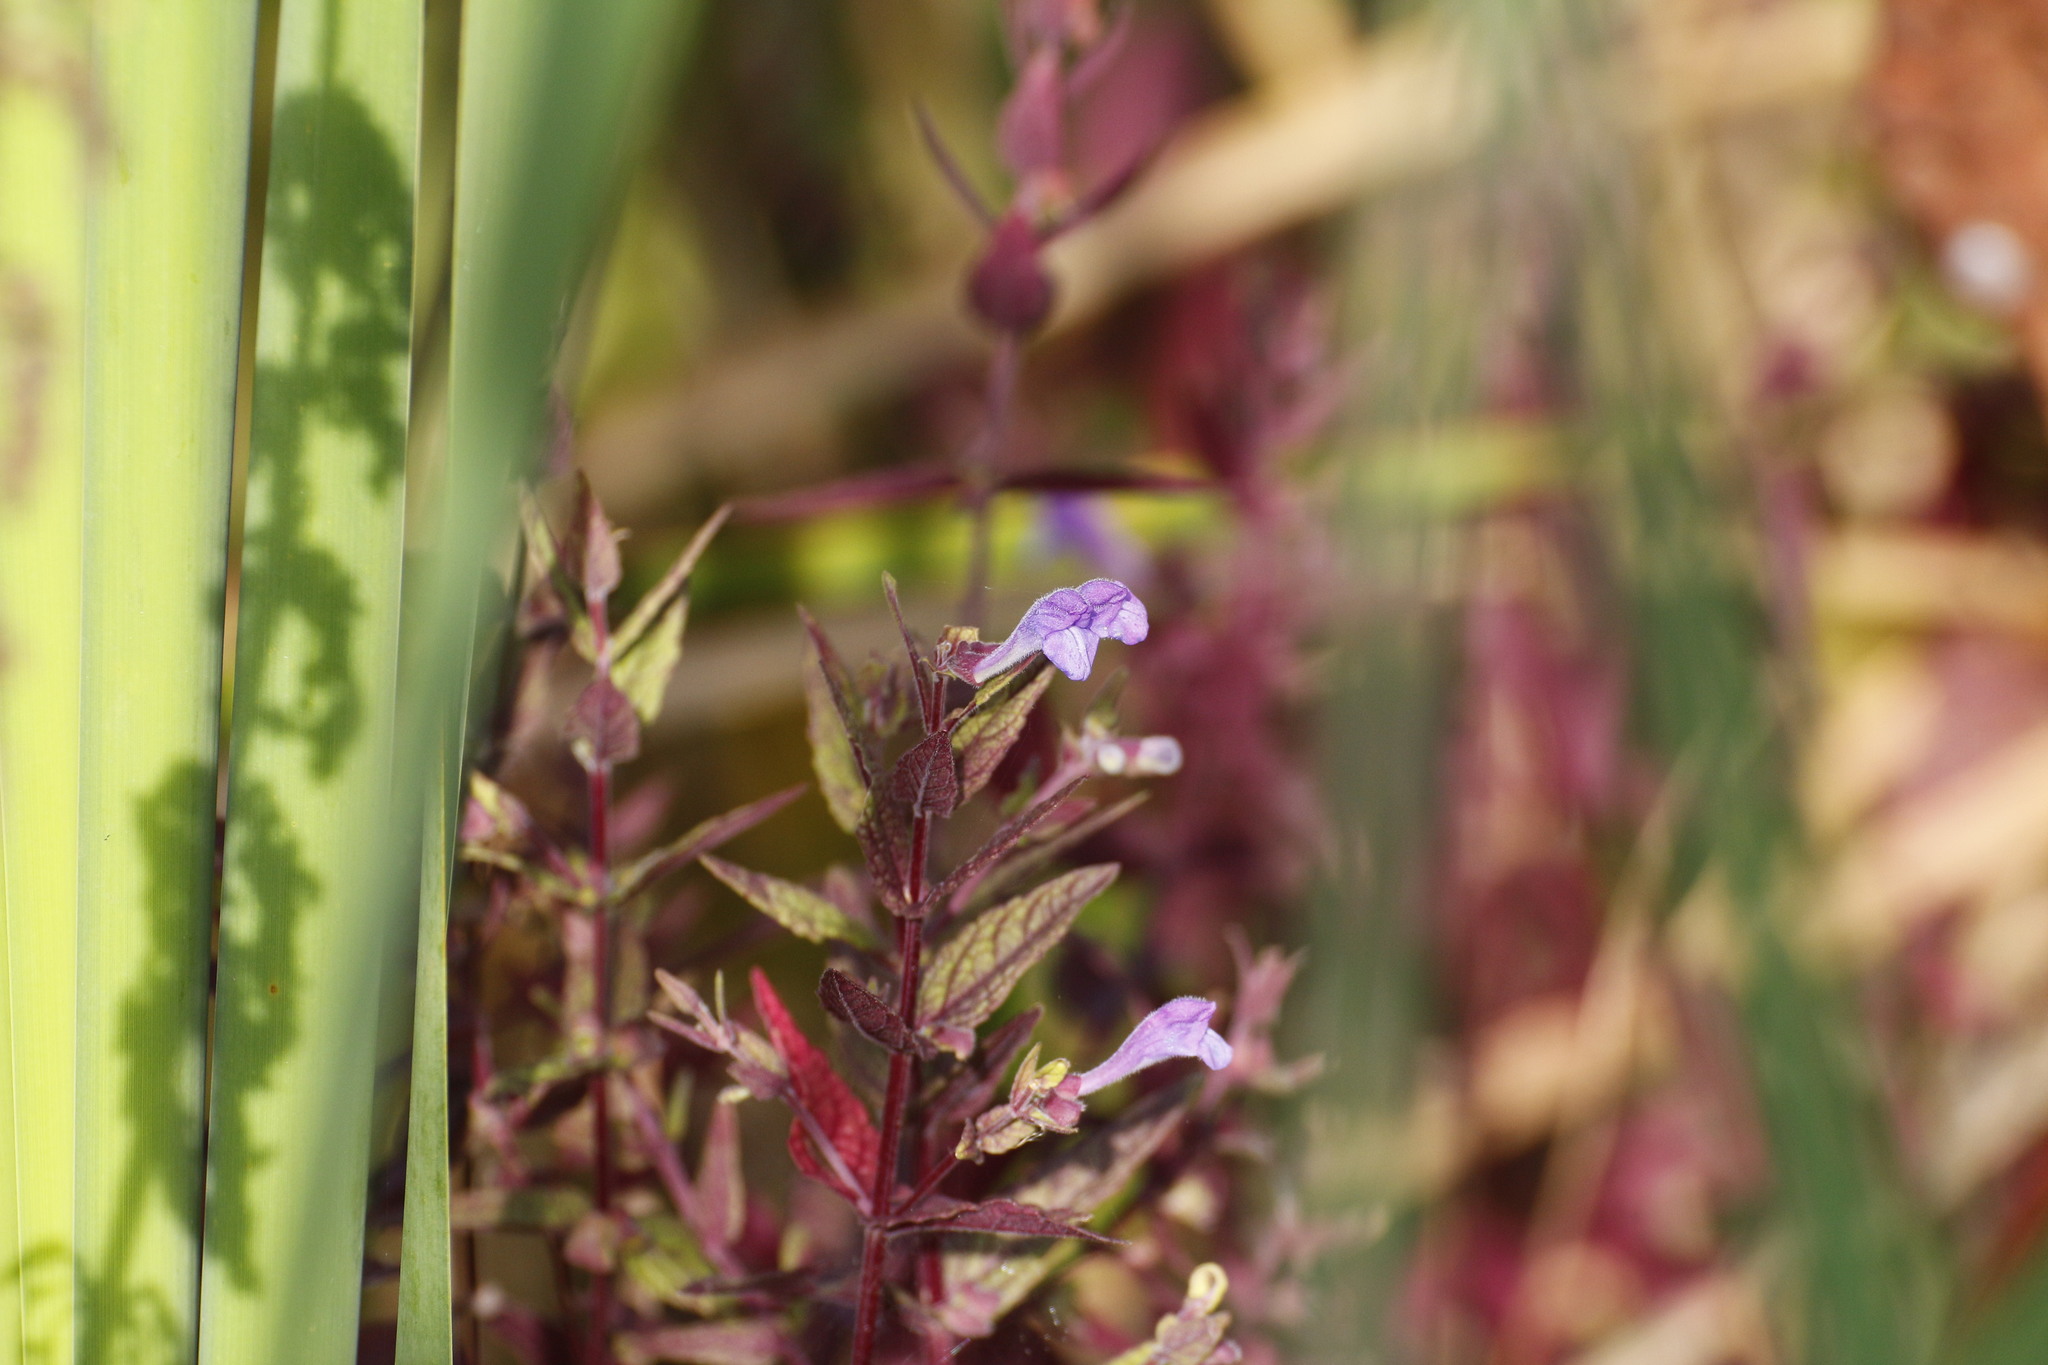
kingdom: Plantae
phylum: Tracheophyta
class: Magnoliopsida
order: Lamiales
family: Lamiaceae
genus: Scutellaria
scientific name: Scutellaria galericulata
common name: Skullcap
